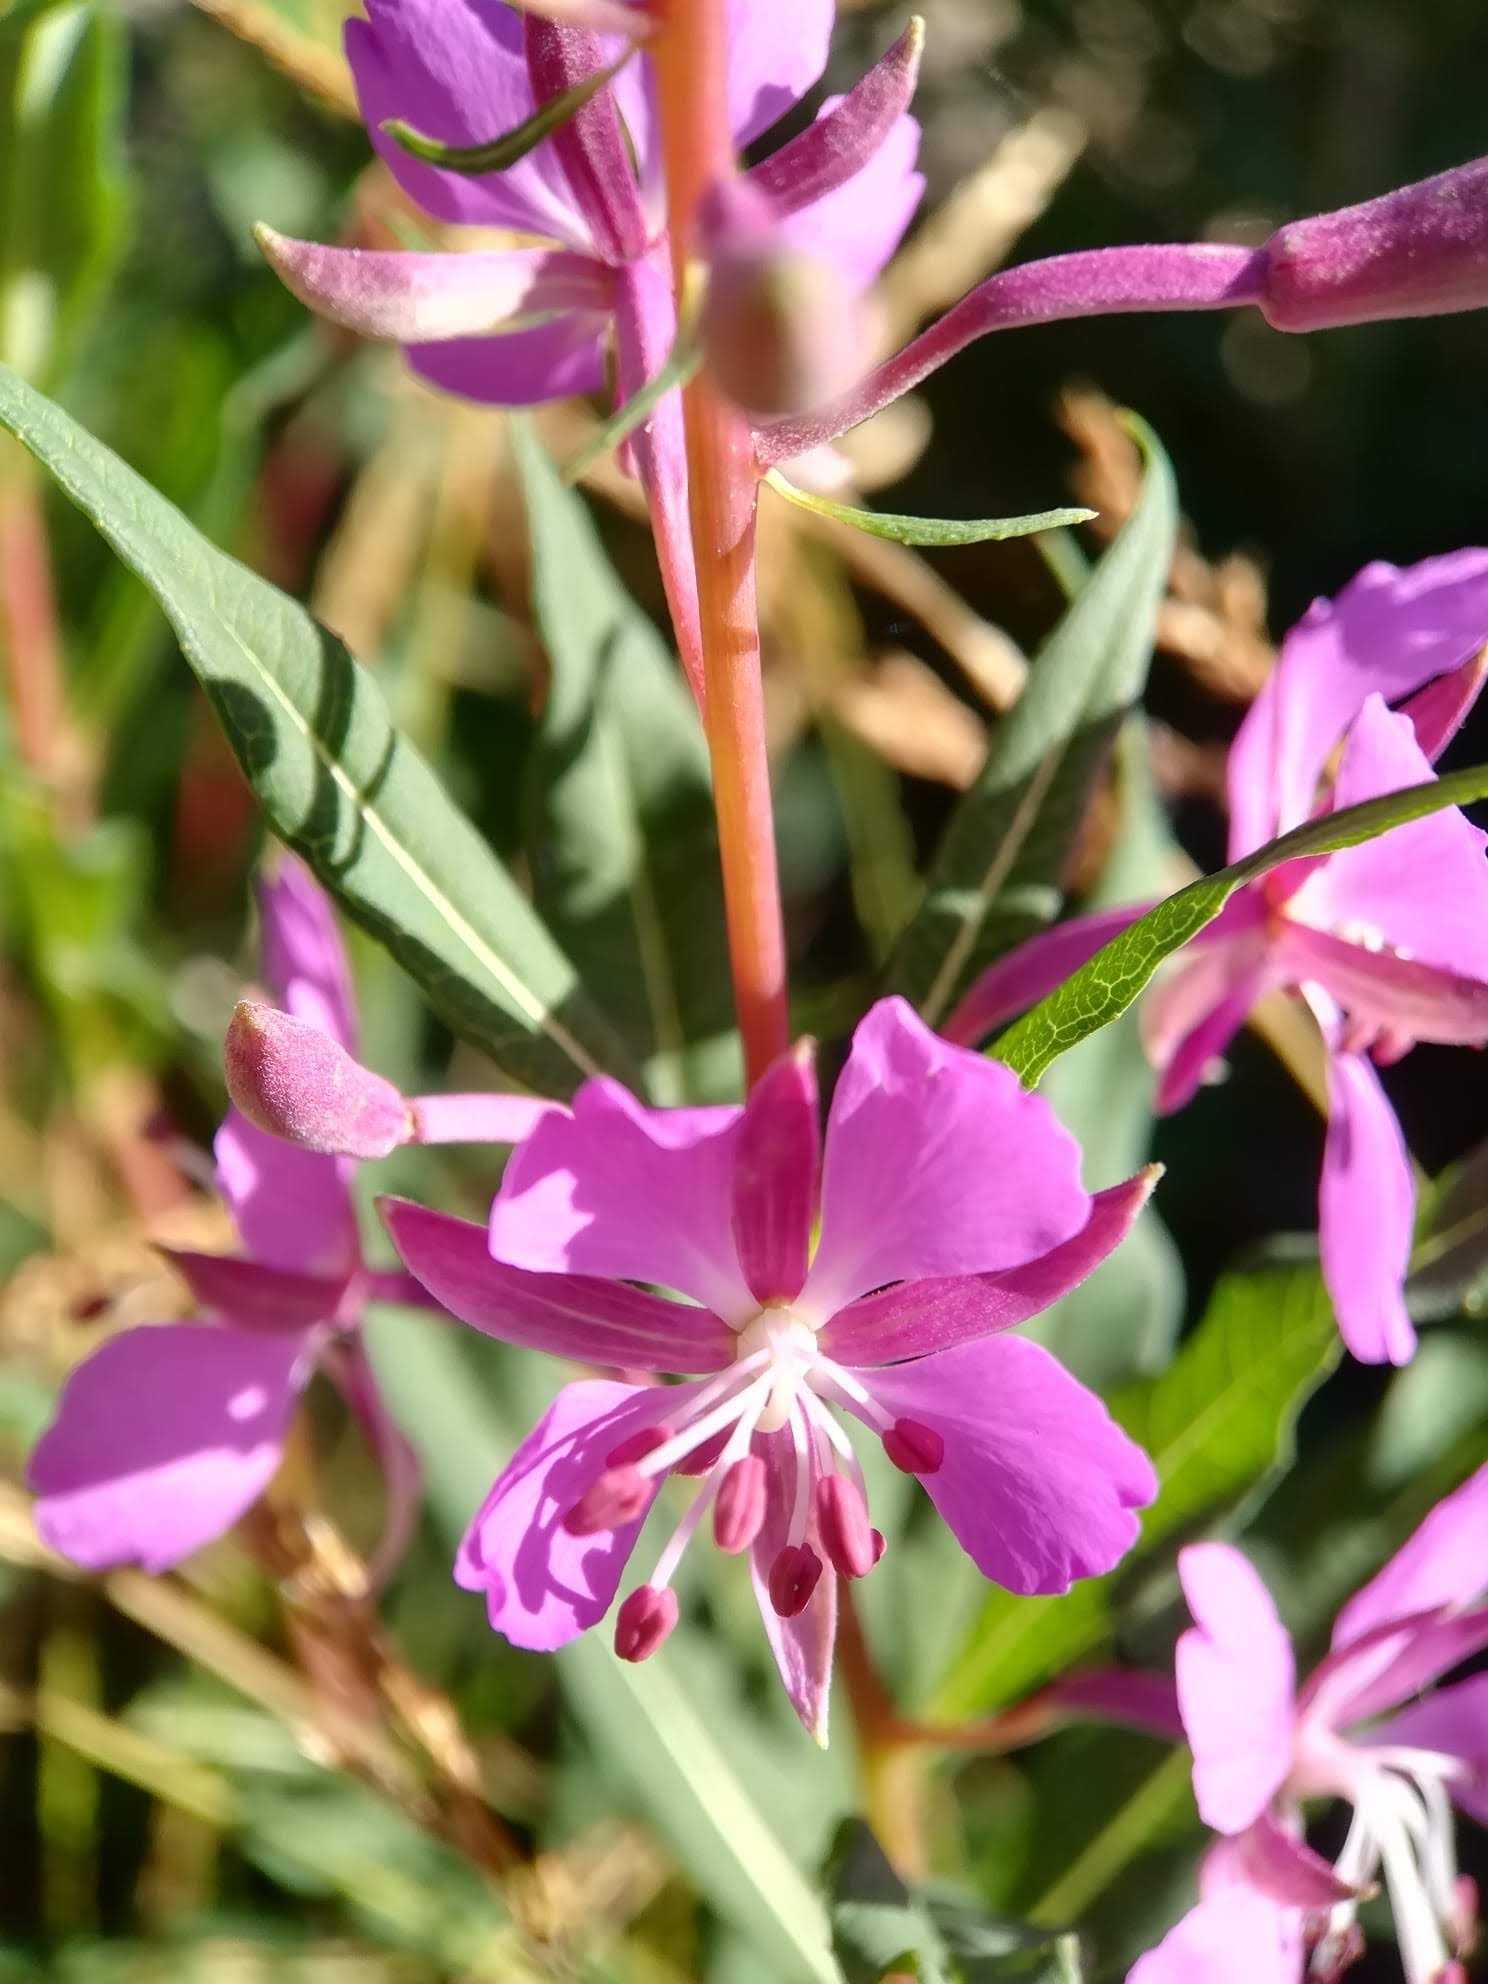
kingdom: Plantae
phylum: Tracheophyta
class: Magnoliopsida
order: Myrtales
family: Onagraceae
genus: Chamaenerion
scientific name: Chamaenerion angustifolium
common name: Fireweed
